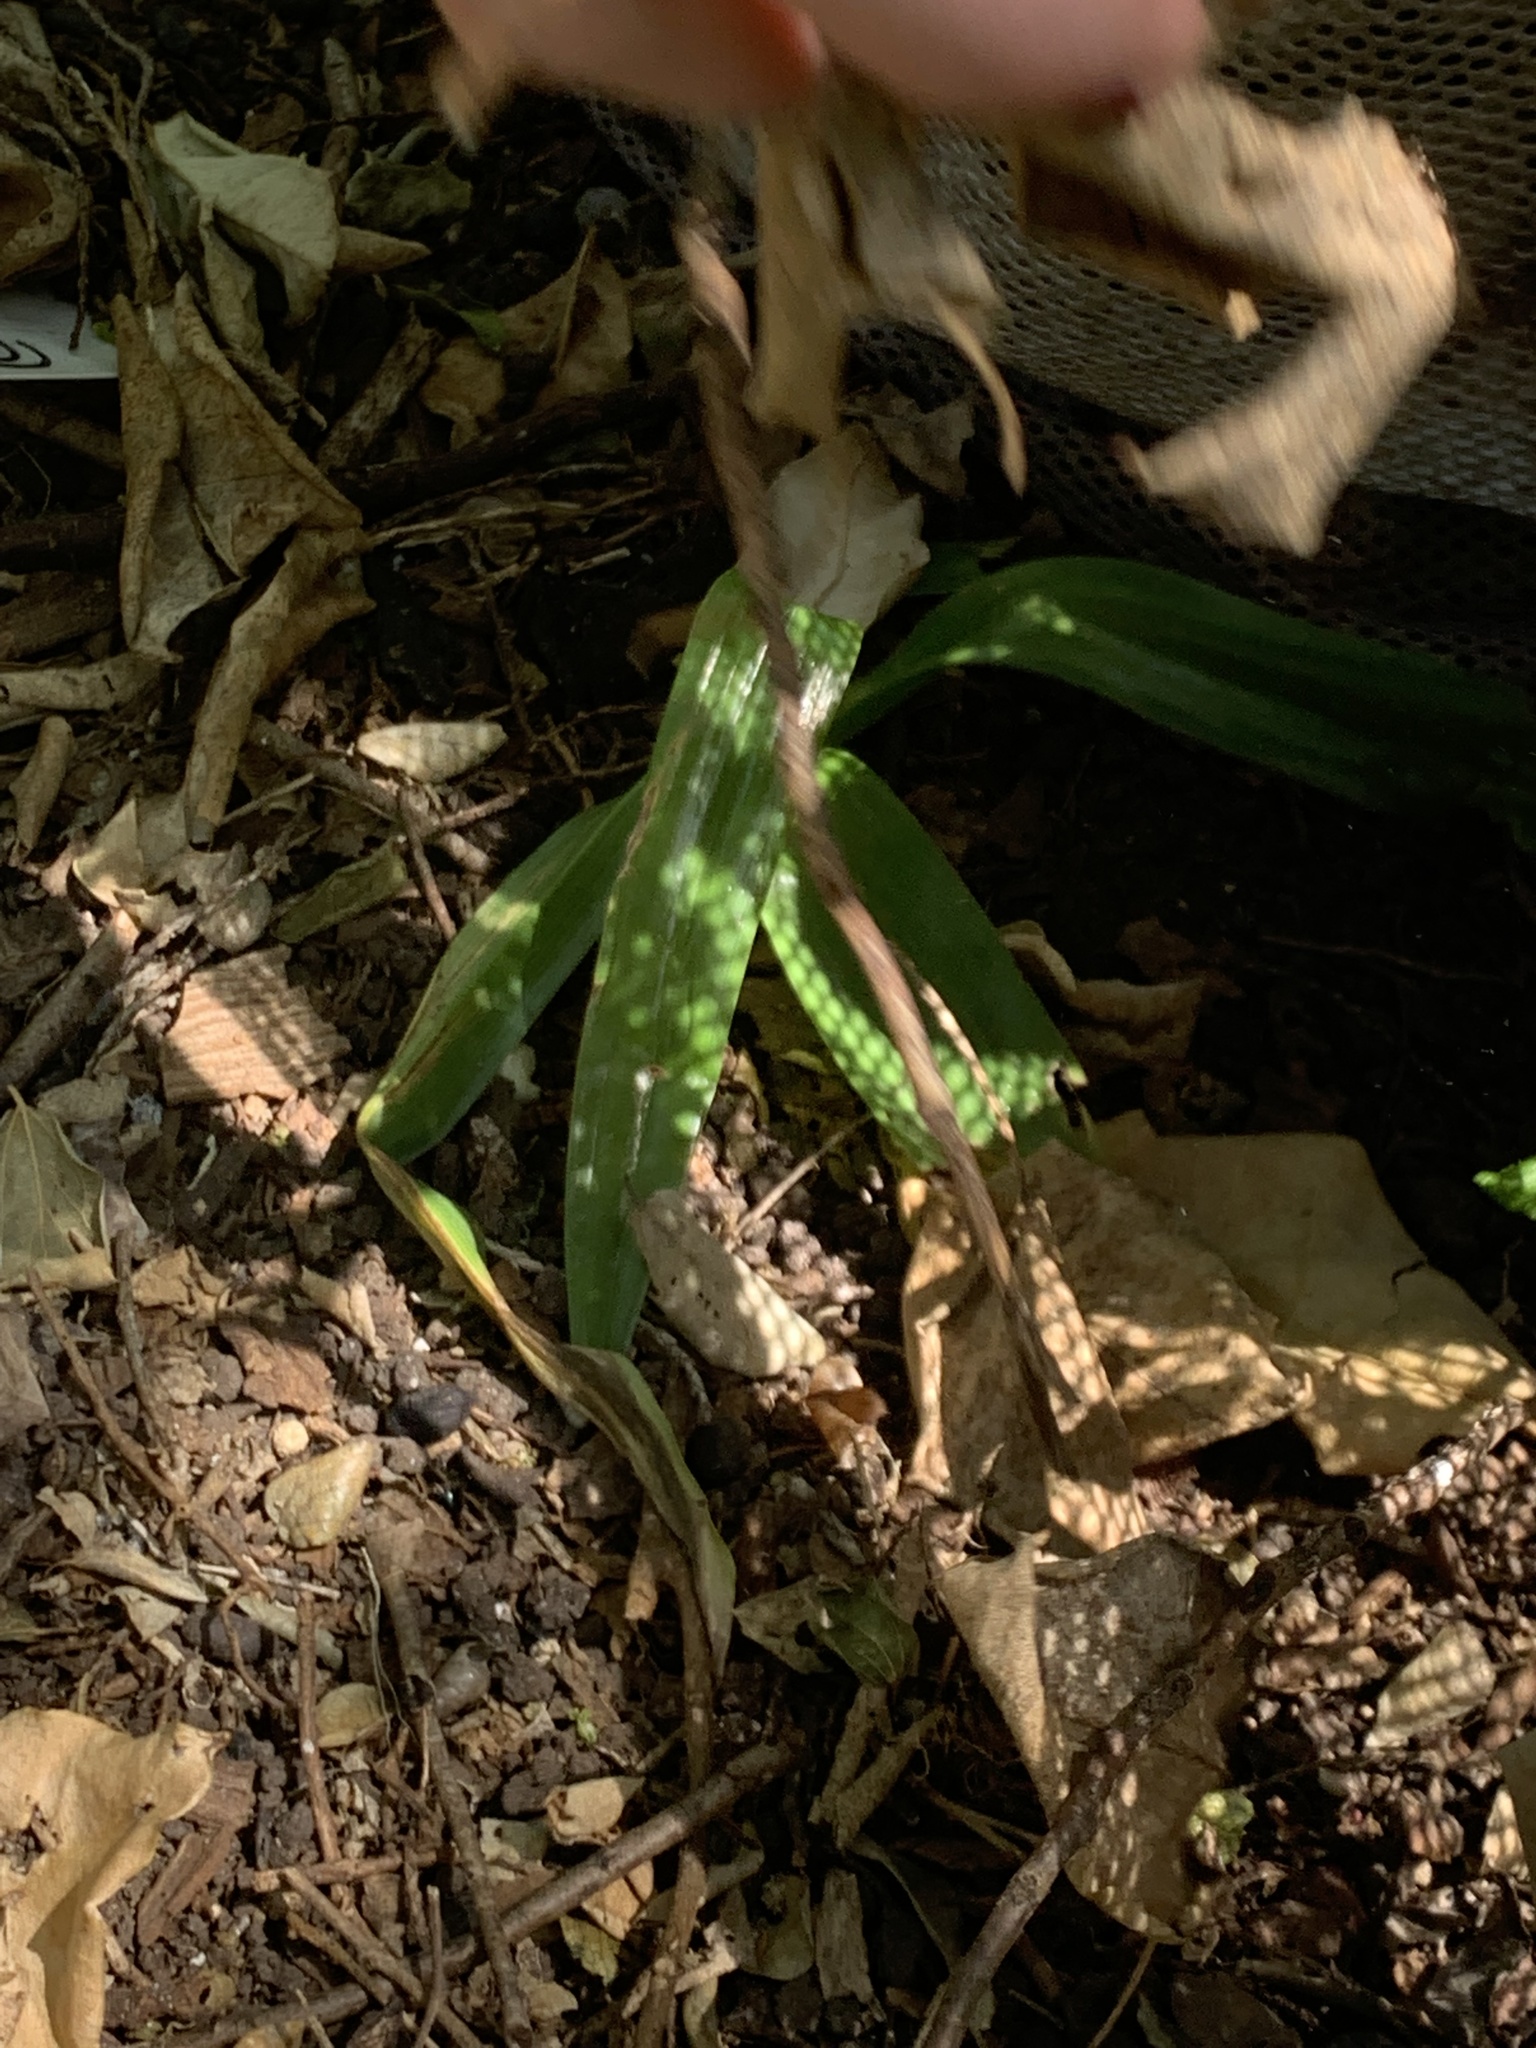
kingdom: Plantae
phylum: Tracheophyta
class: Liliopsida
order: Asparagales
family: Orchidaceae
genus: Chloraea
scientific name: Chloraea membranacea
